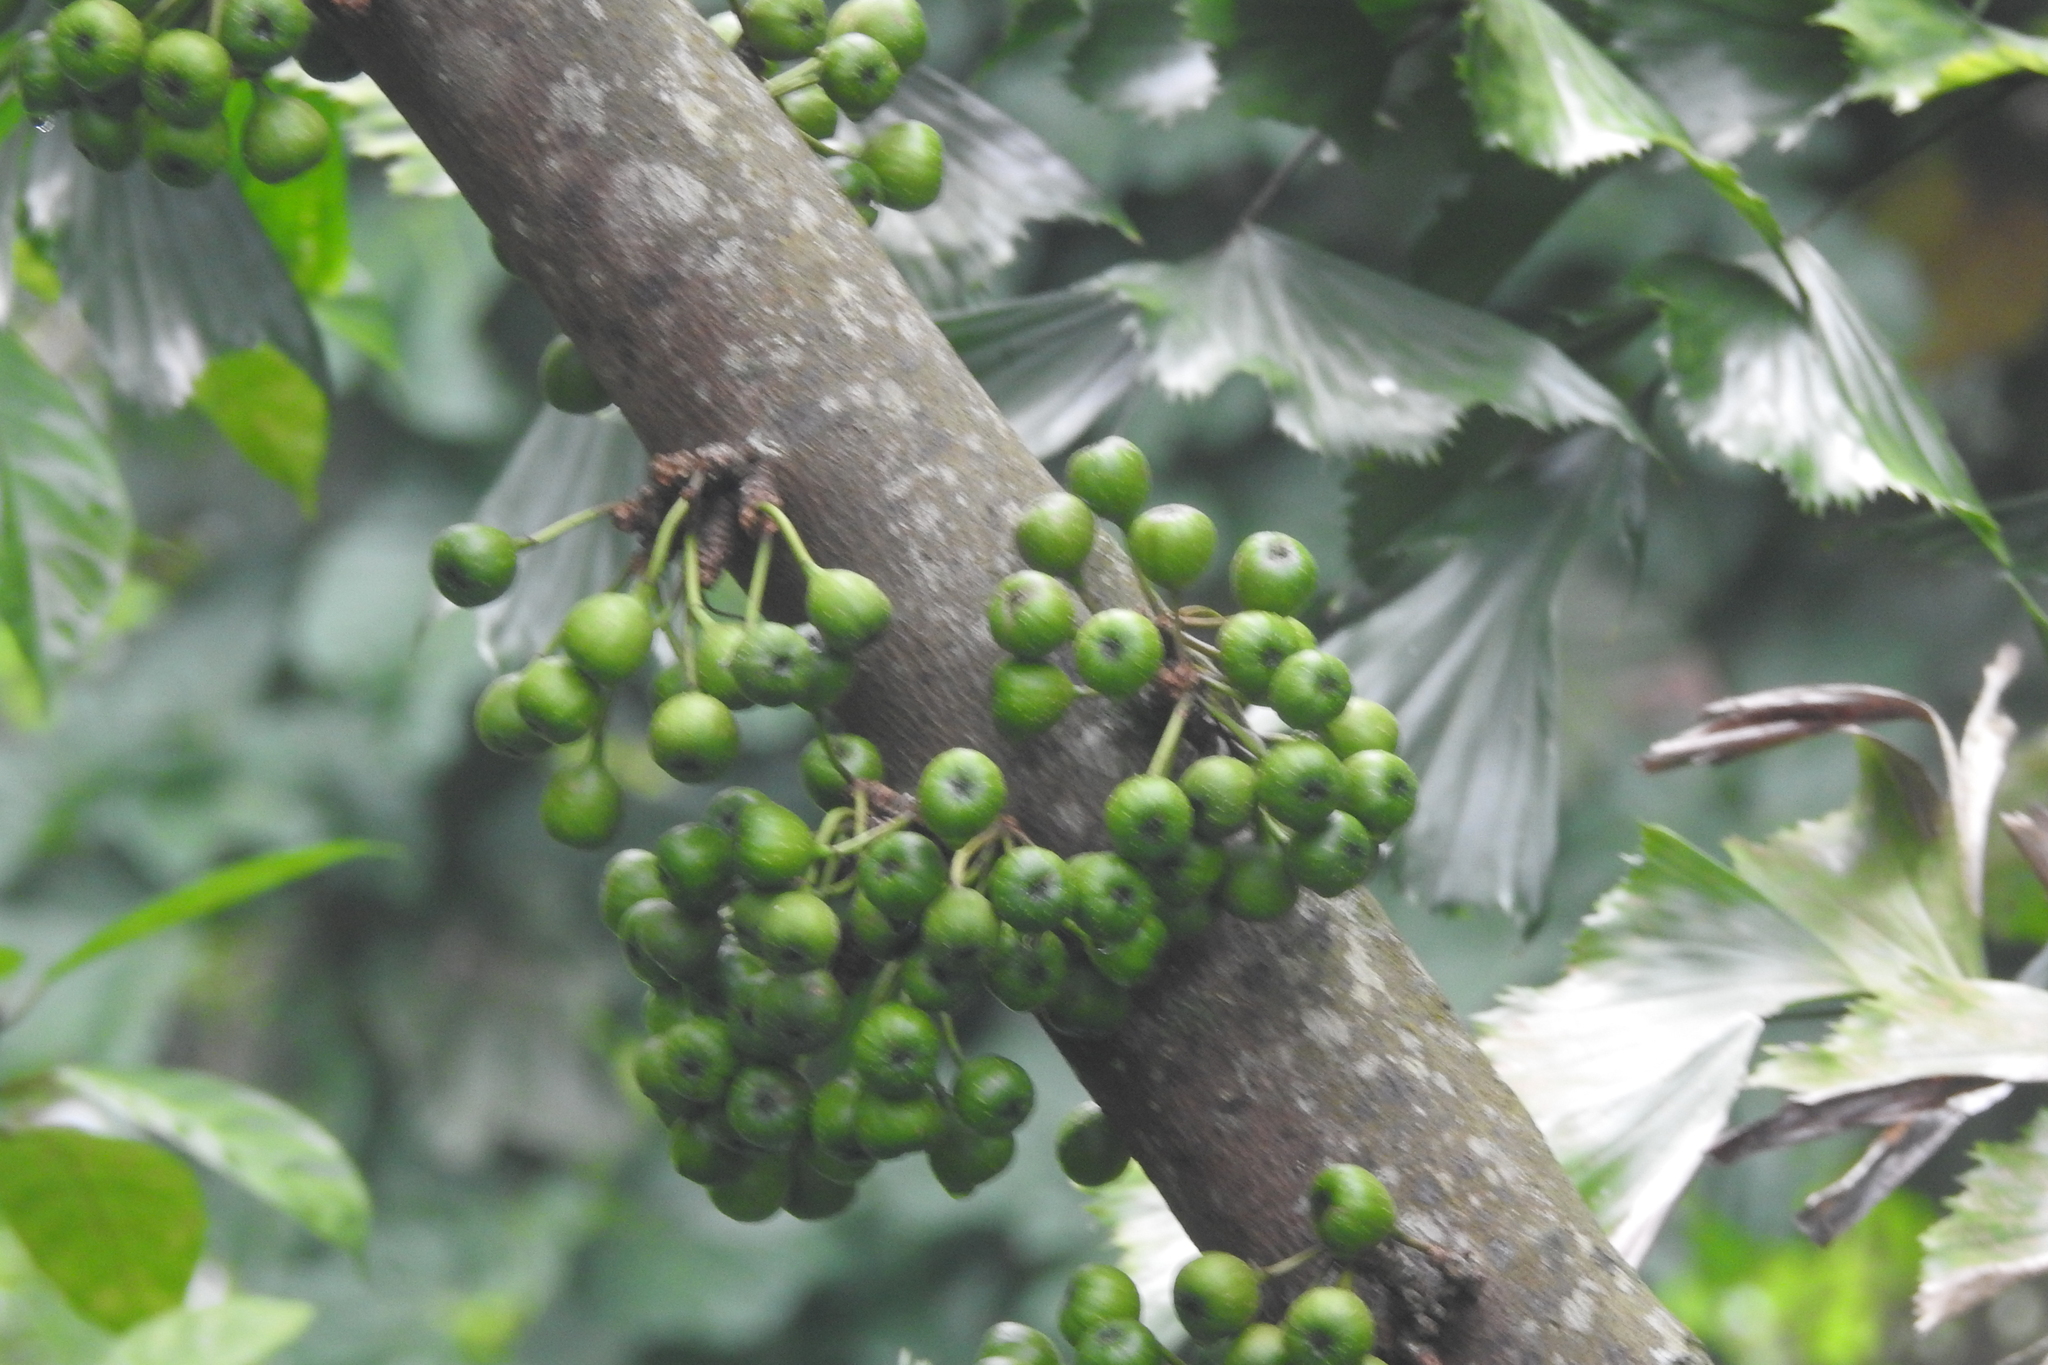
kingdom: Plantae
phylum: Tracheophyta
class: Magnoliopsida
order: Rosales
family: Moraceae
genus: Ficus
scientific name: Ficus fistulosa
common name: Figs
